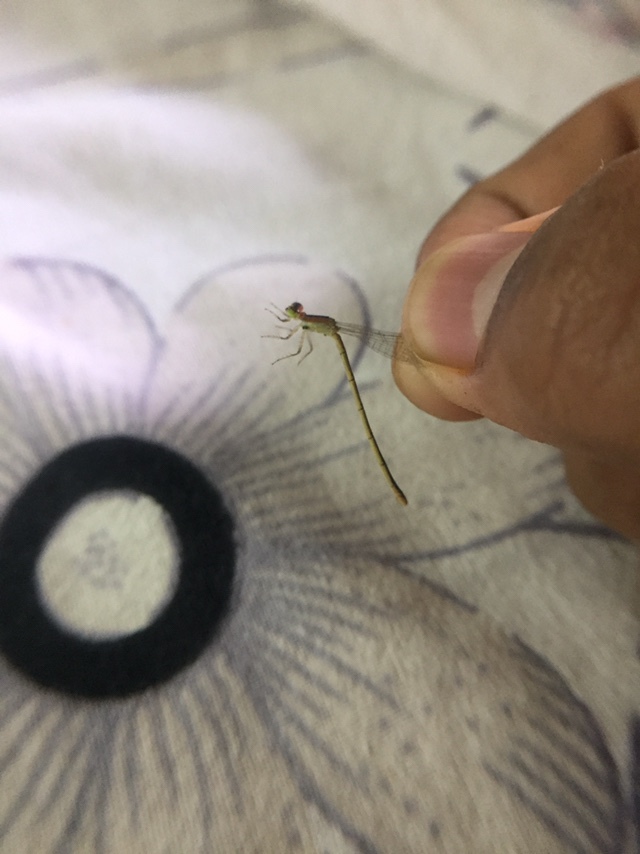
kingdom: Animalia
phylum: Arthropoda
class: Insecta
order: Odonata
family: Coenagrionidae
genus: Agriocnemis
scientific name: Agriocnemis pygmaea
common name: Pygmy wisp
